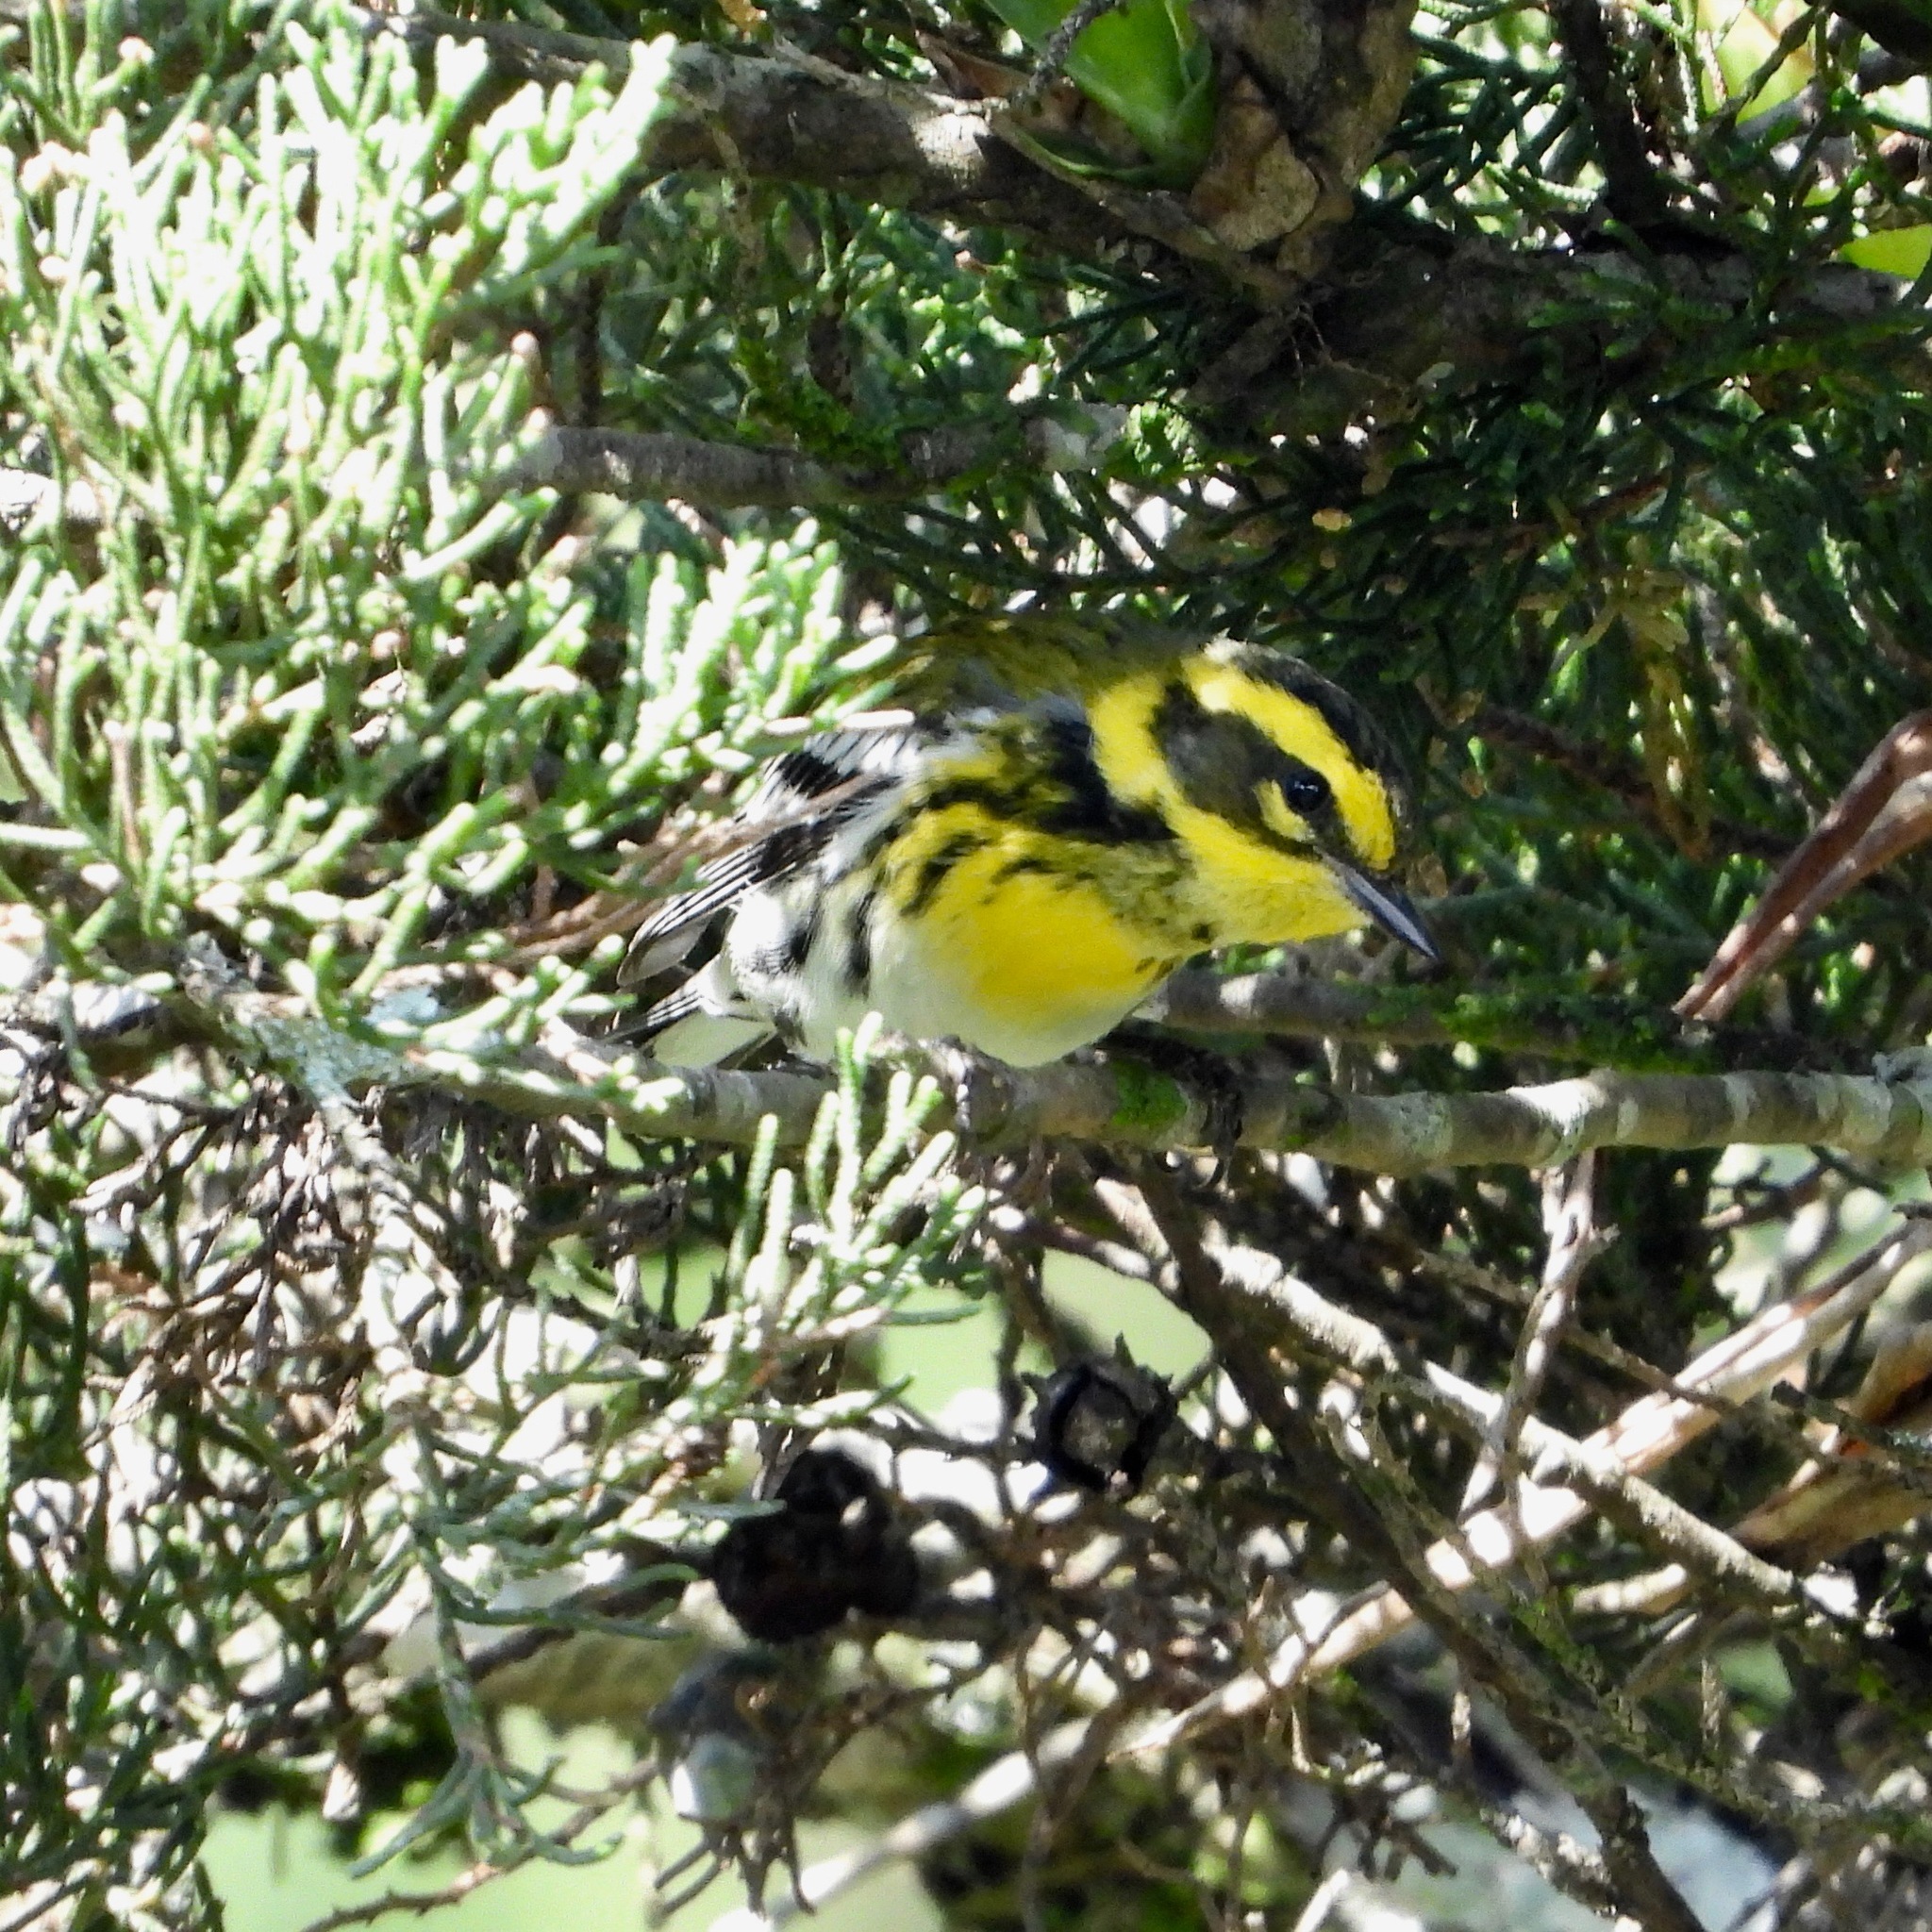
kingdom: Animalia
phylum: Chordata
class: Aves
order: Passeriformes
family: Parulidae
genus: Setophaga
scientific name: Setophaga townsendi
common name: Townsend's warbler
